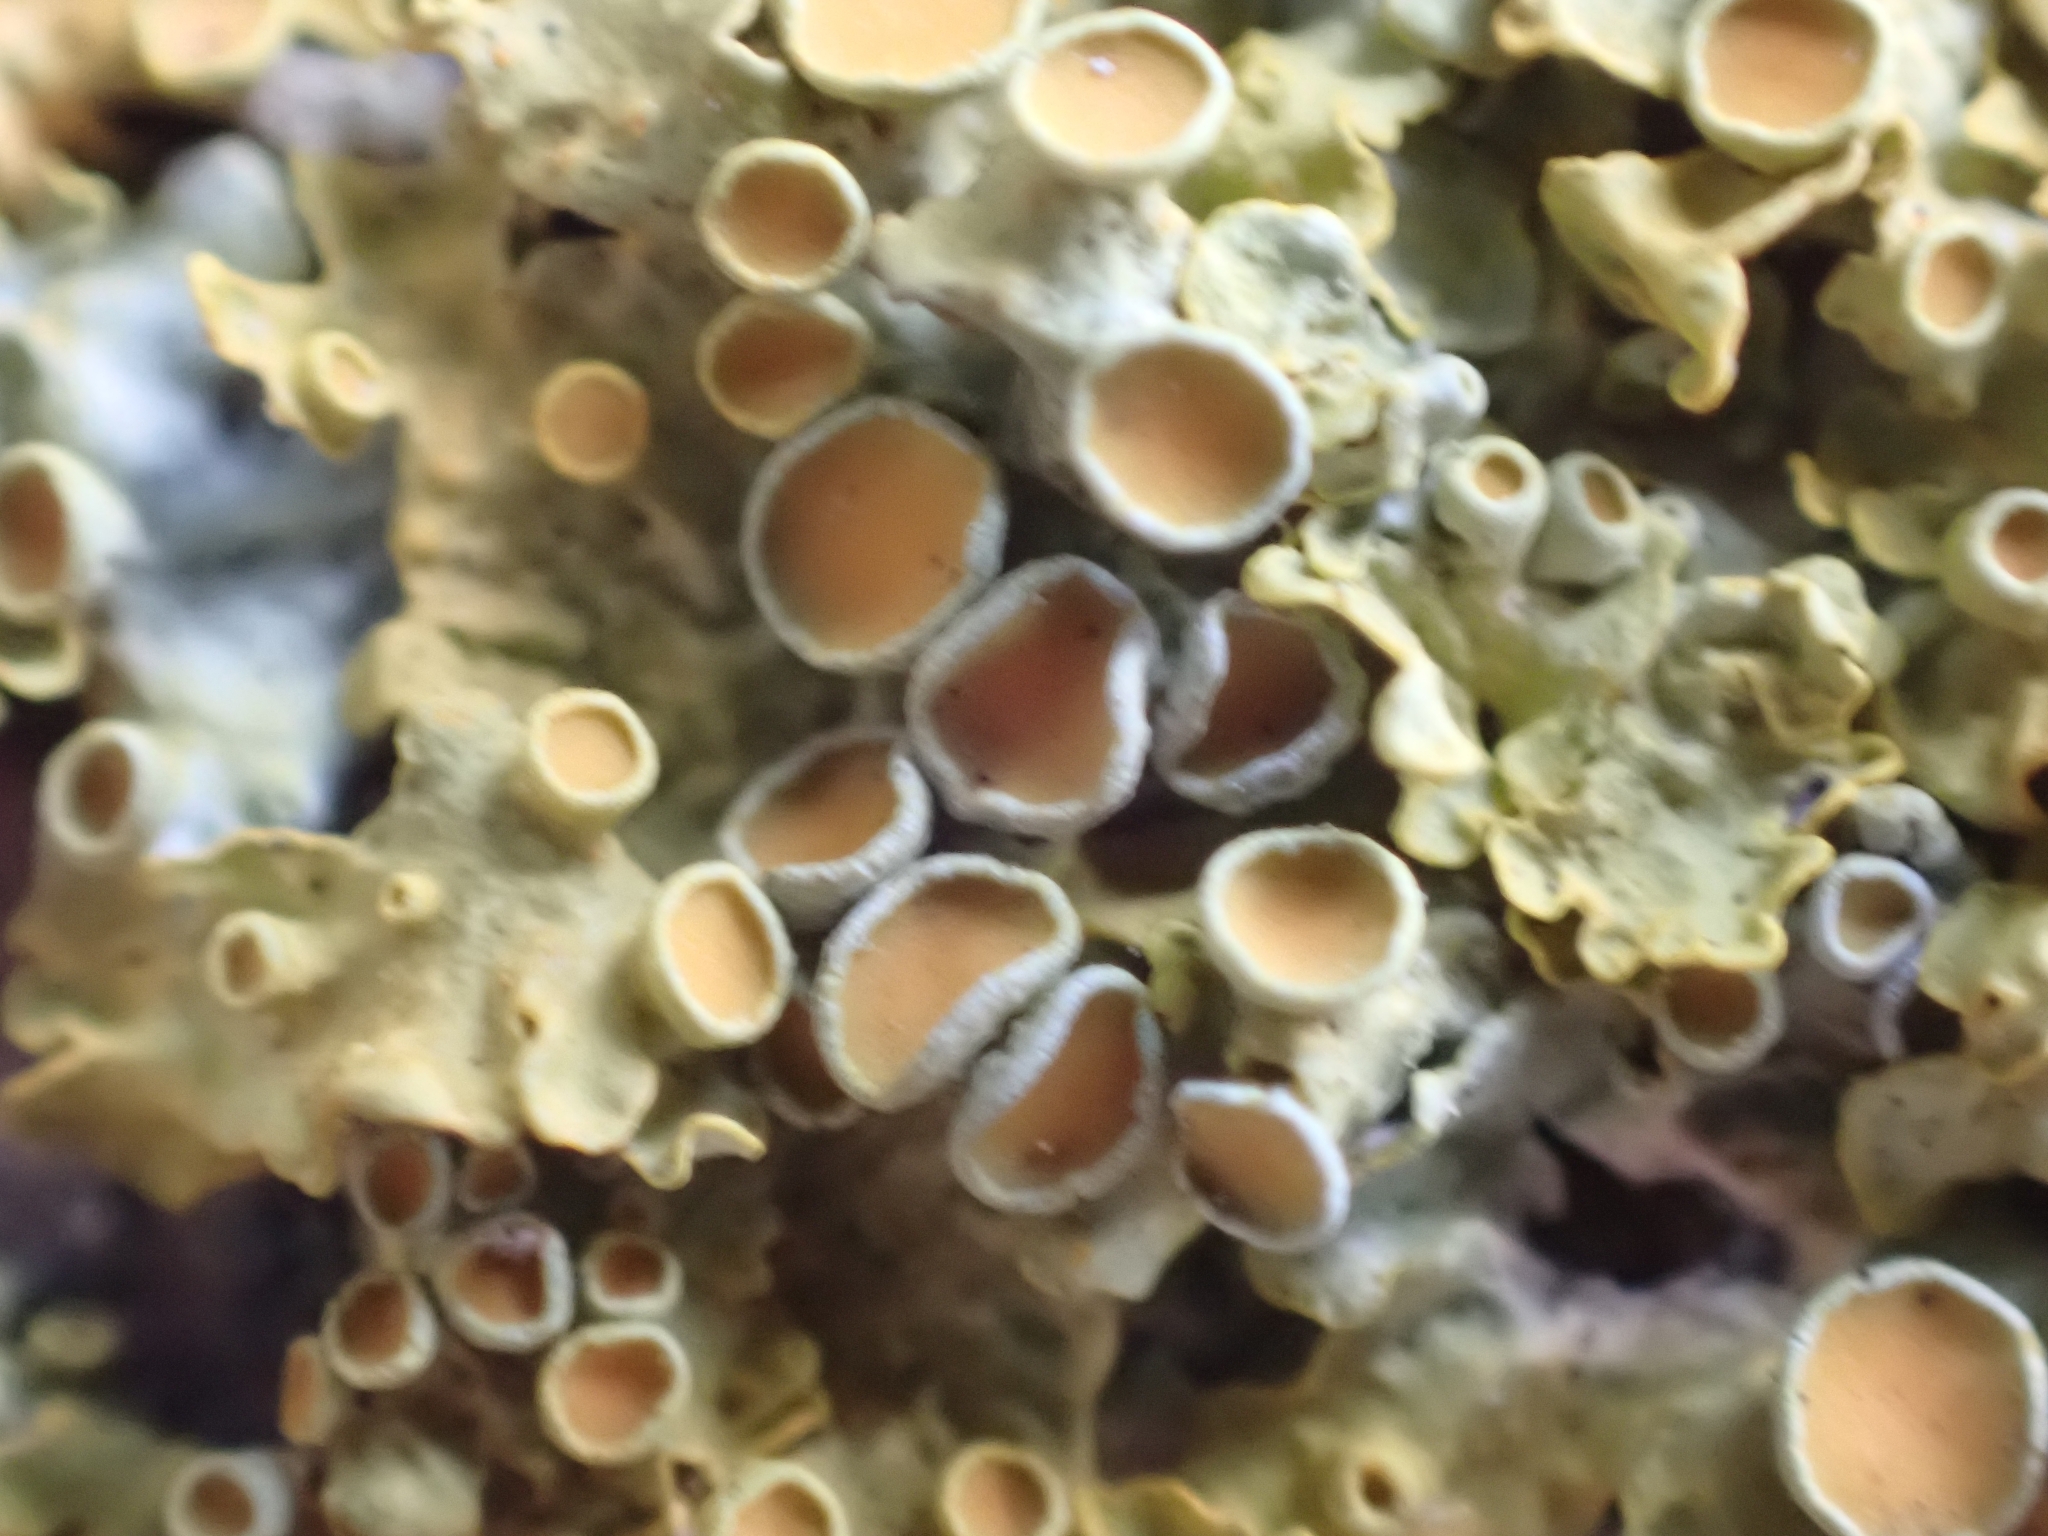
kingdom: Fungi
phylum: Ascomycota
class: Lecanoromycetes
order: Teloschistales
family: Teloschistaceae
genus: Xanthoria
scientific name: Xanthoria parietina
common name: Common orange lichen
